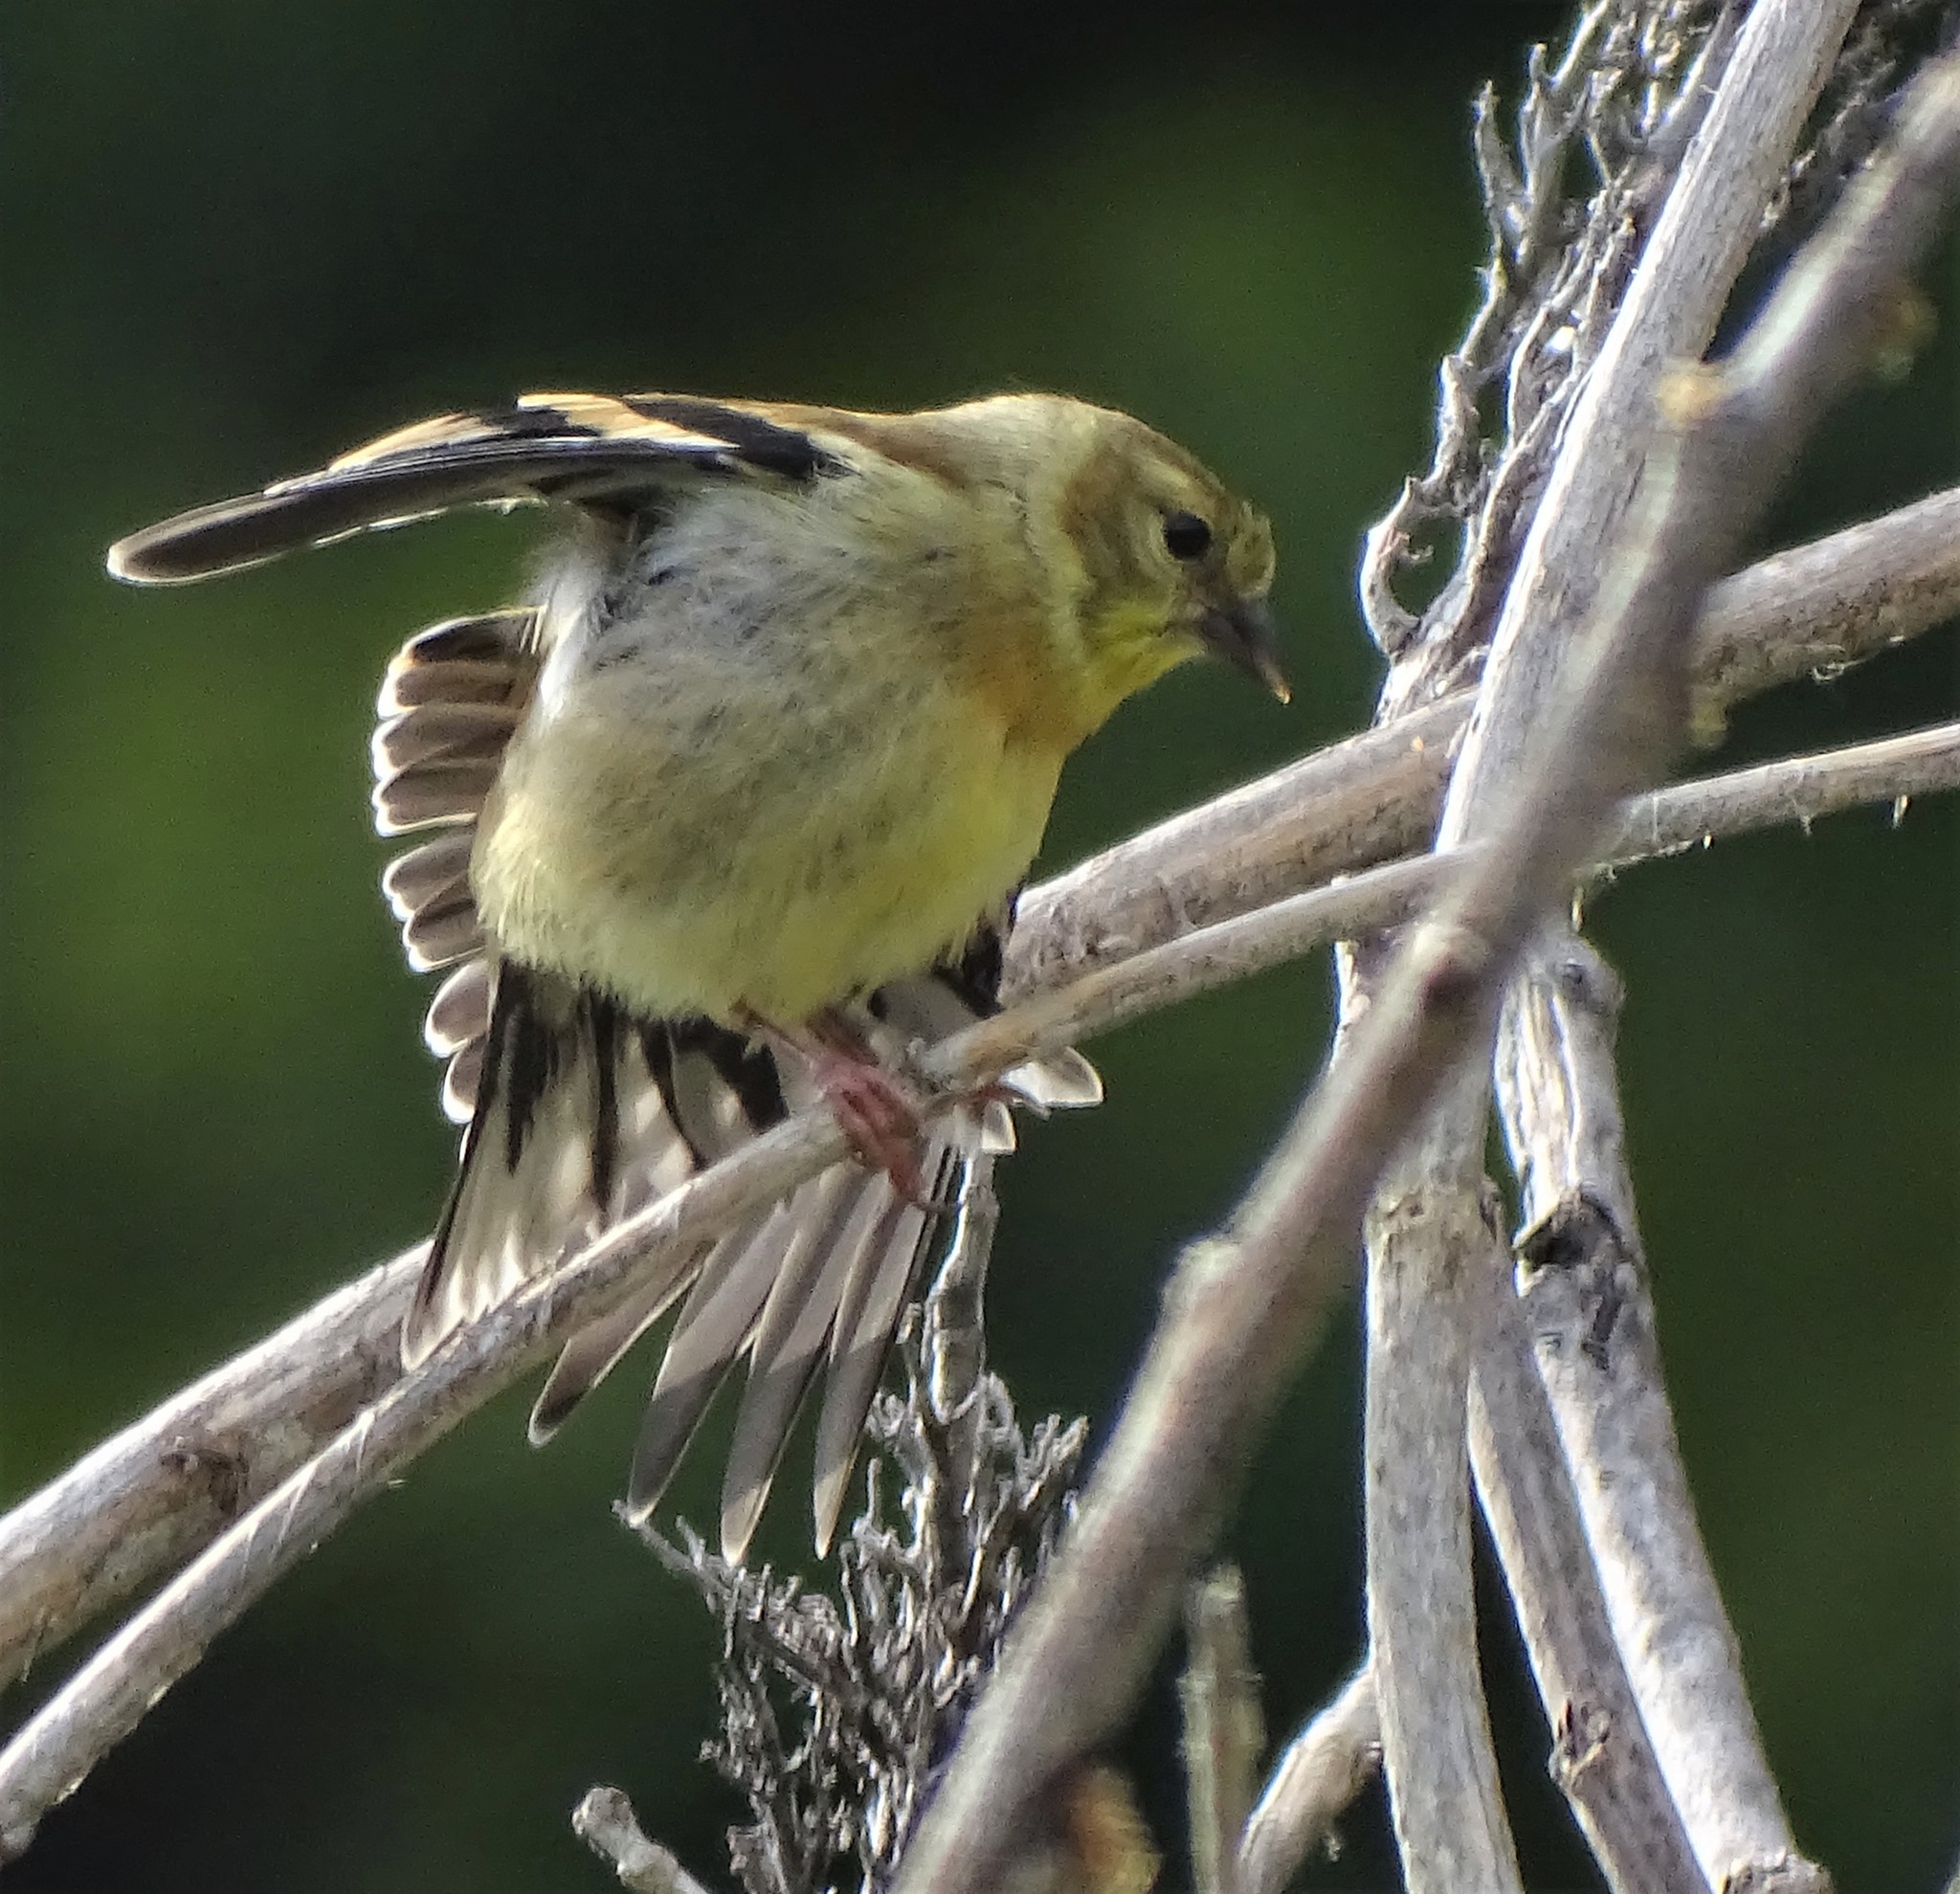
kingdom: Animalia
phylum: Chordata
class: Aves
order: Passeriformes
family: Fringillidae
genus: Spinus
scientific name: Spinus tristis
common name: American goldfinch
